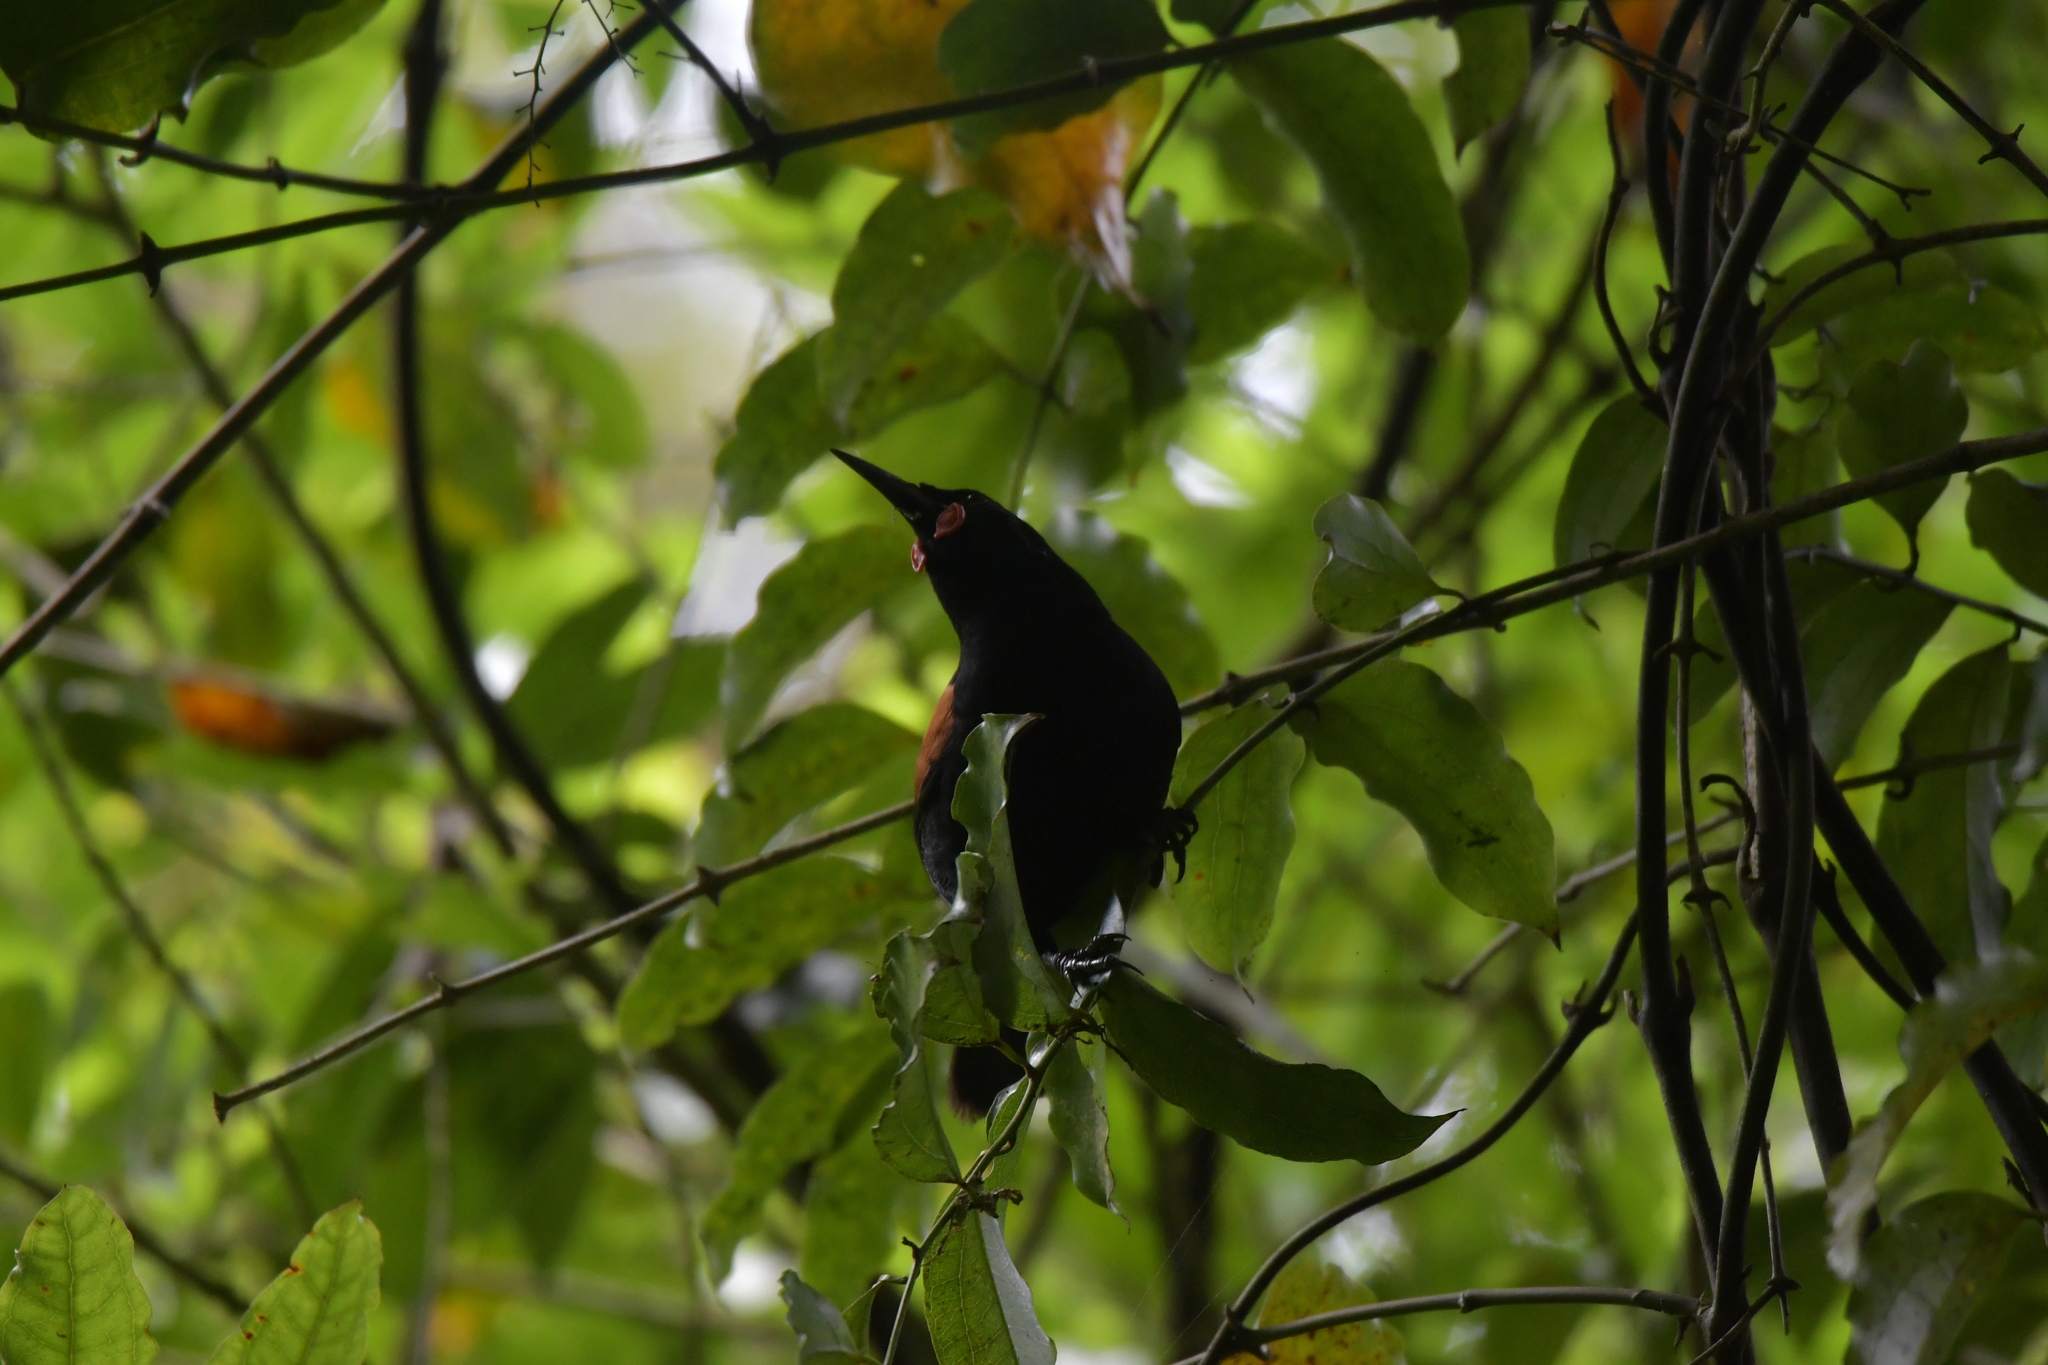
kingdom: Animalia
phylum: Chordata
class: Aves
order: Passeriformes
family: Callaeatidae
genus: Philesturnus
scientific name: Philesturnus carunculatus
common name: South island saddleback
